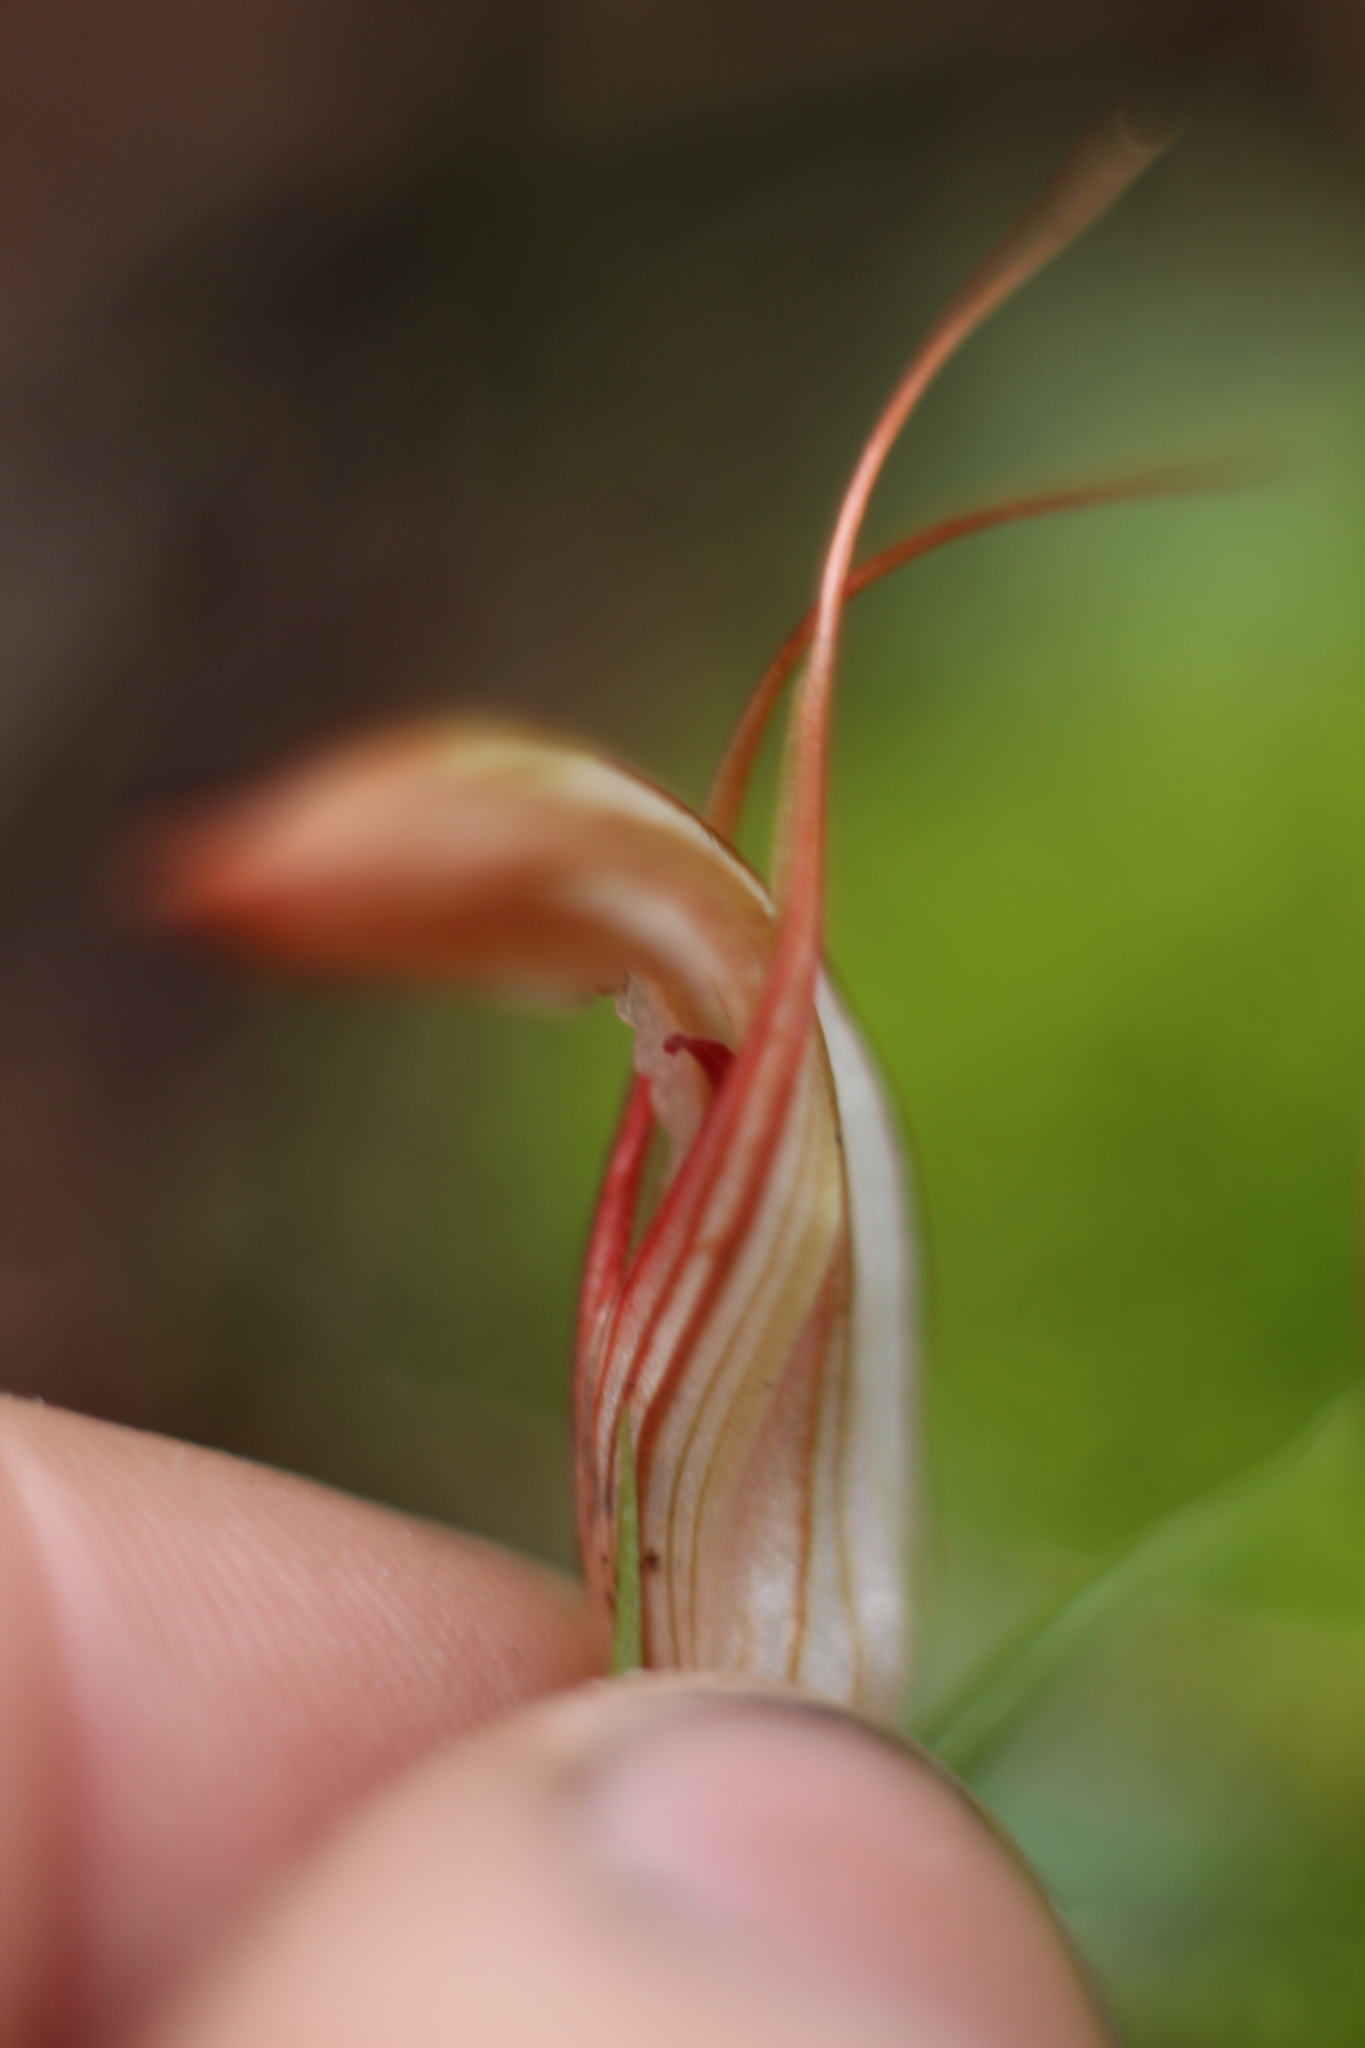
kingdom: Plantae
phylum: Tracheophyta
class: Liliopsida
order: Asparagales
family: Orchidaceae
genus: Pterostylis
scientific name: Pterostylis rogersii
